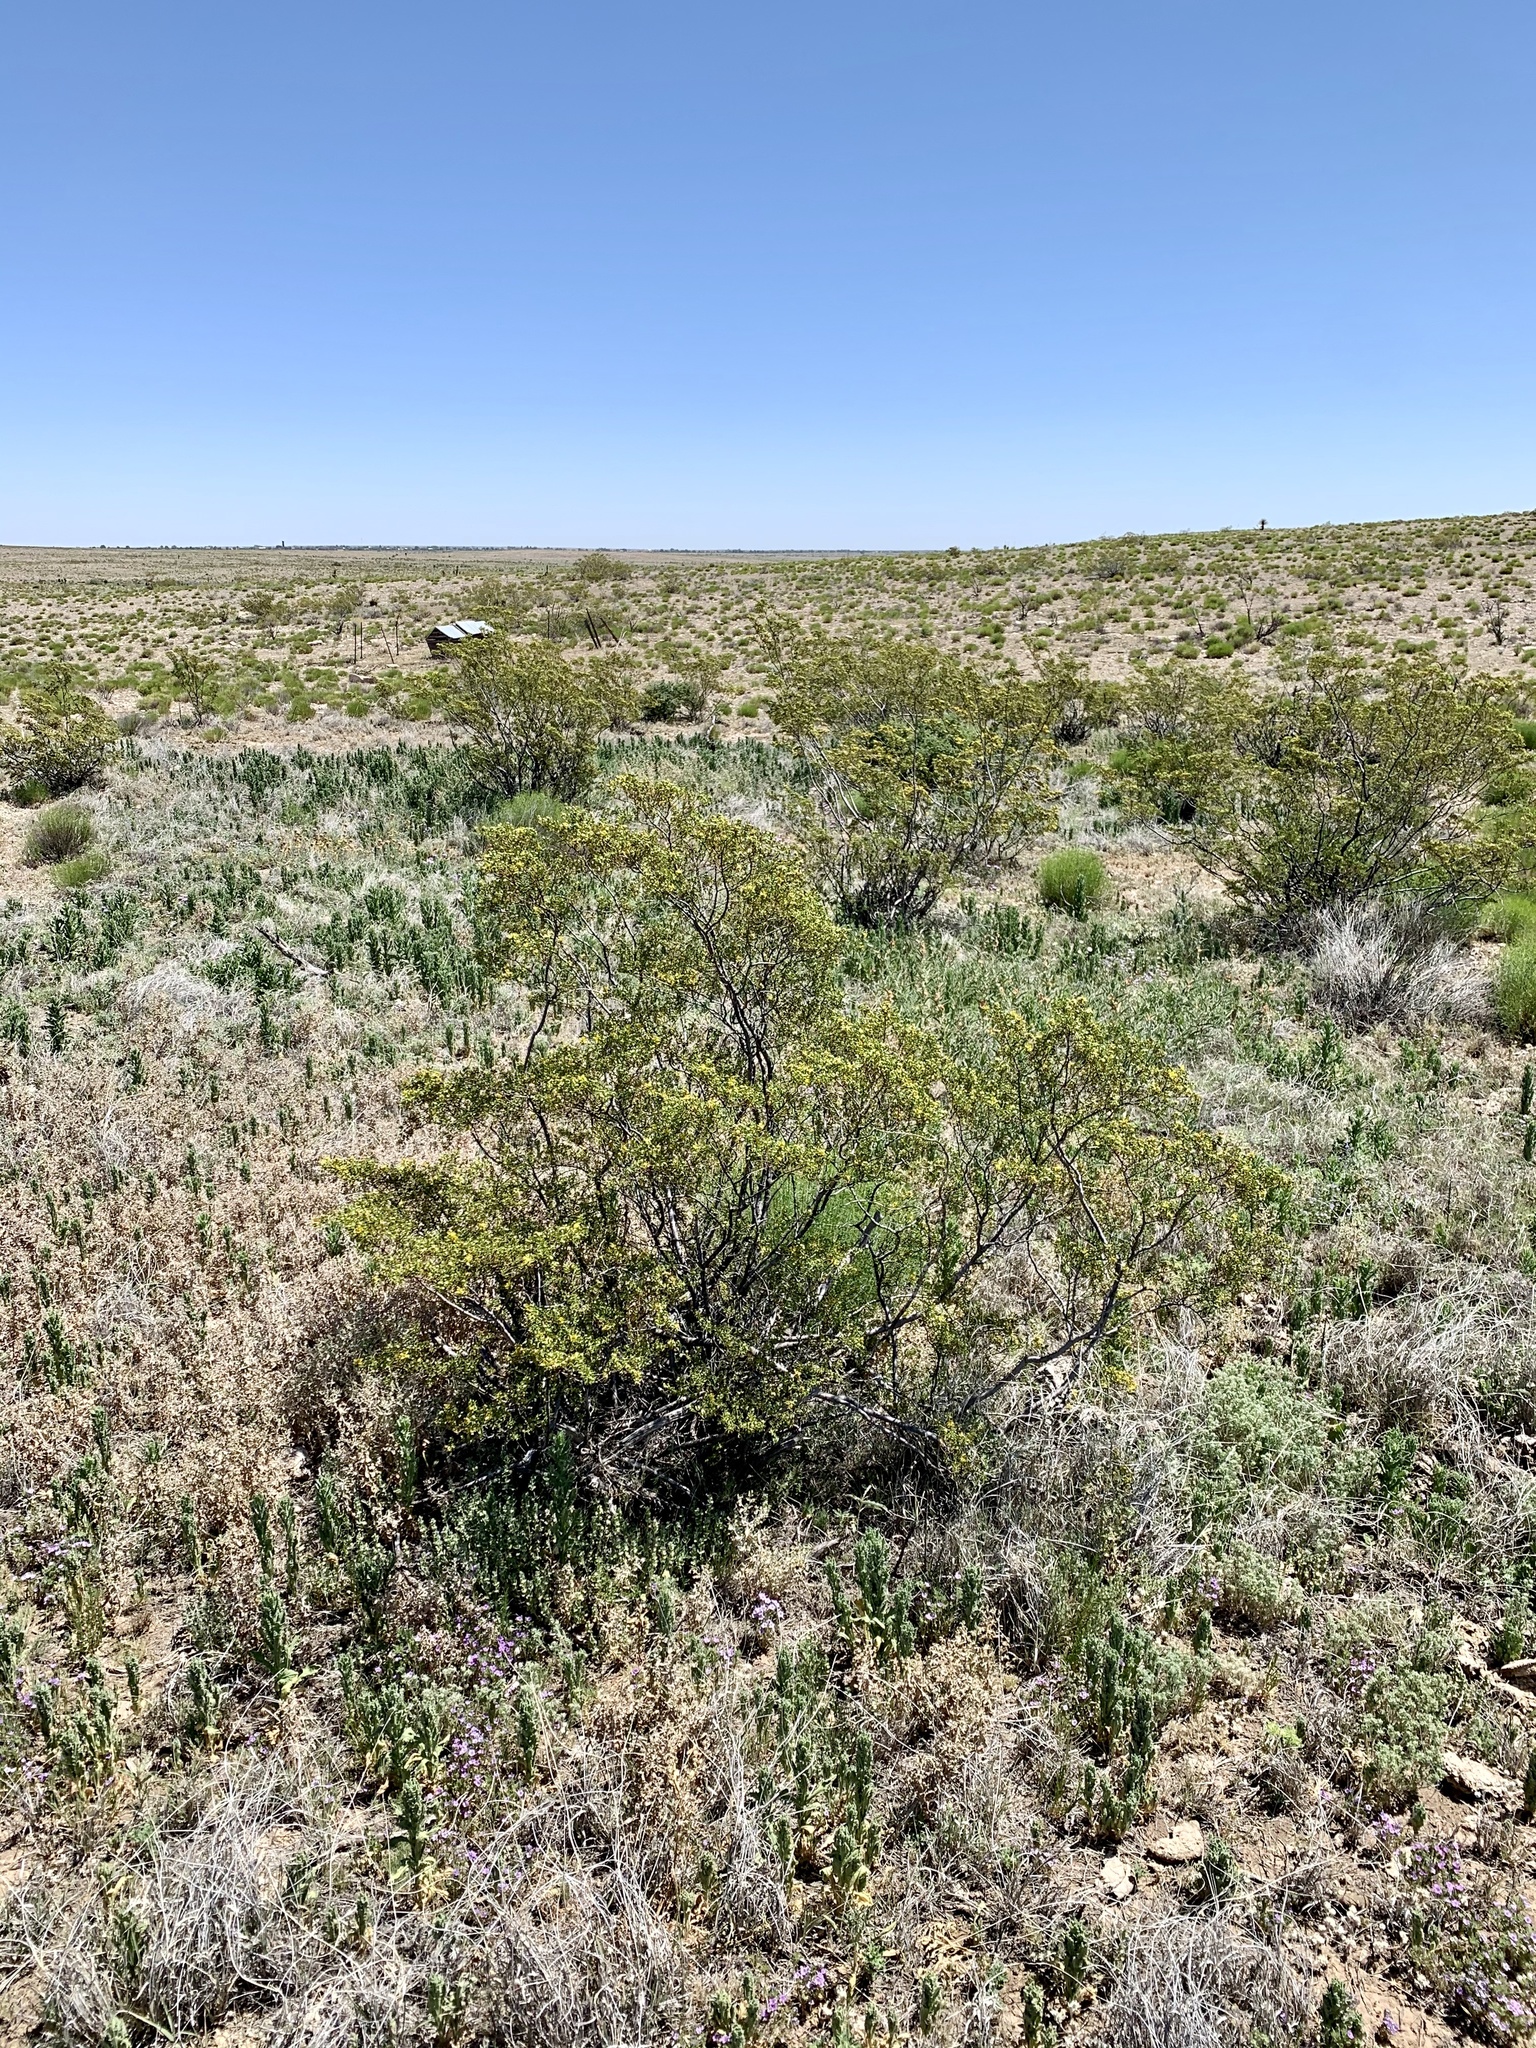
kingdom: Plantae
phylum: Tracheophyta
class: Magnoliopsida
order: Zygophyllales
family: Zygophyllaceae
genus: Larrea
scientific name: Larrea tridentata
